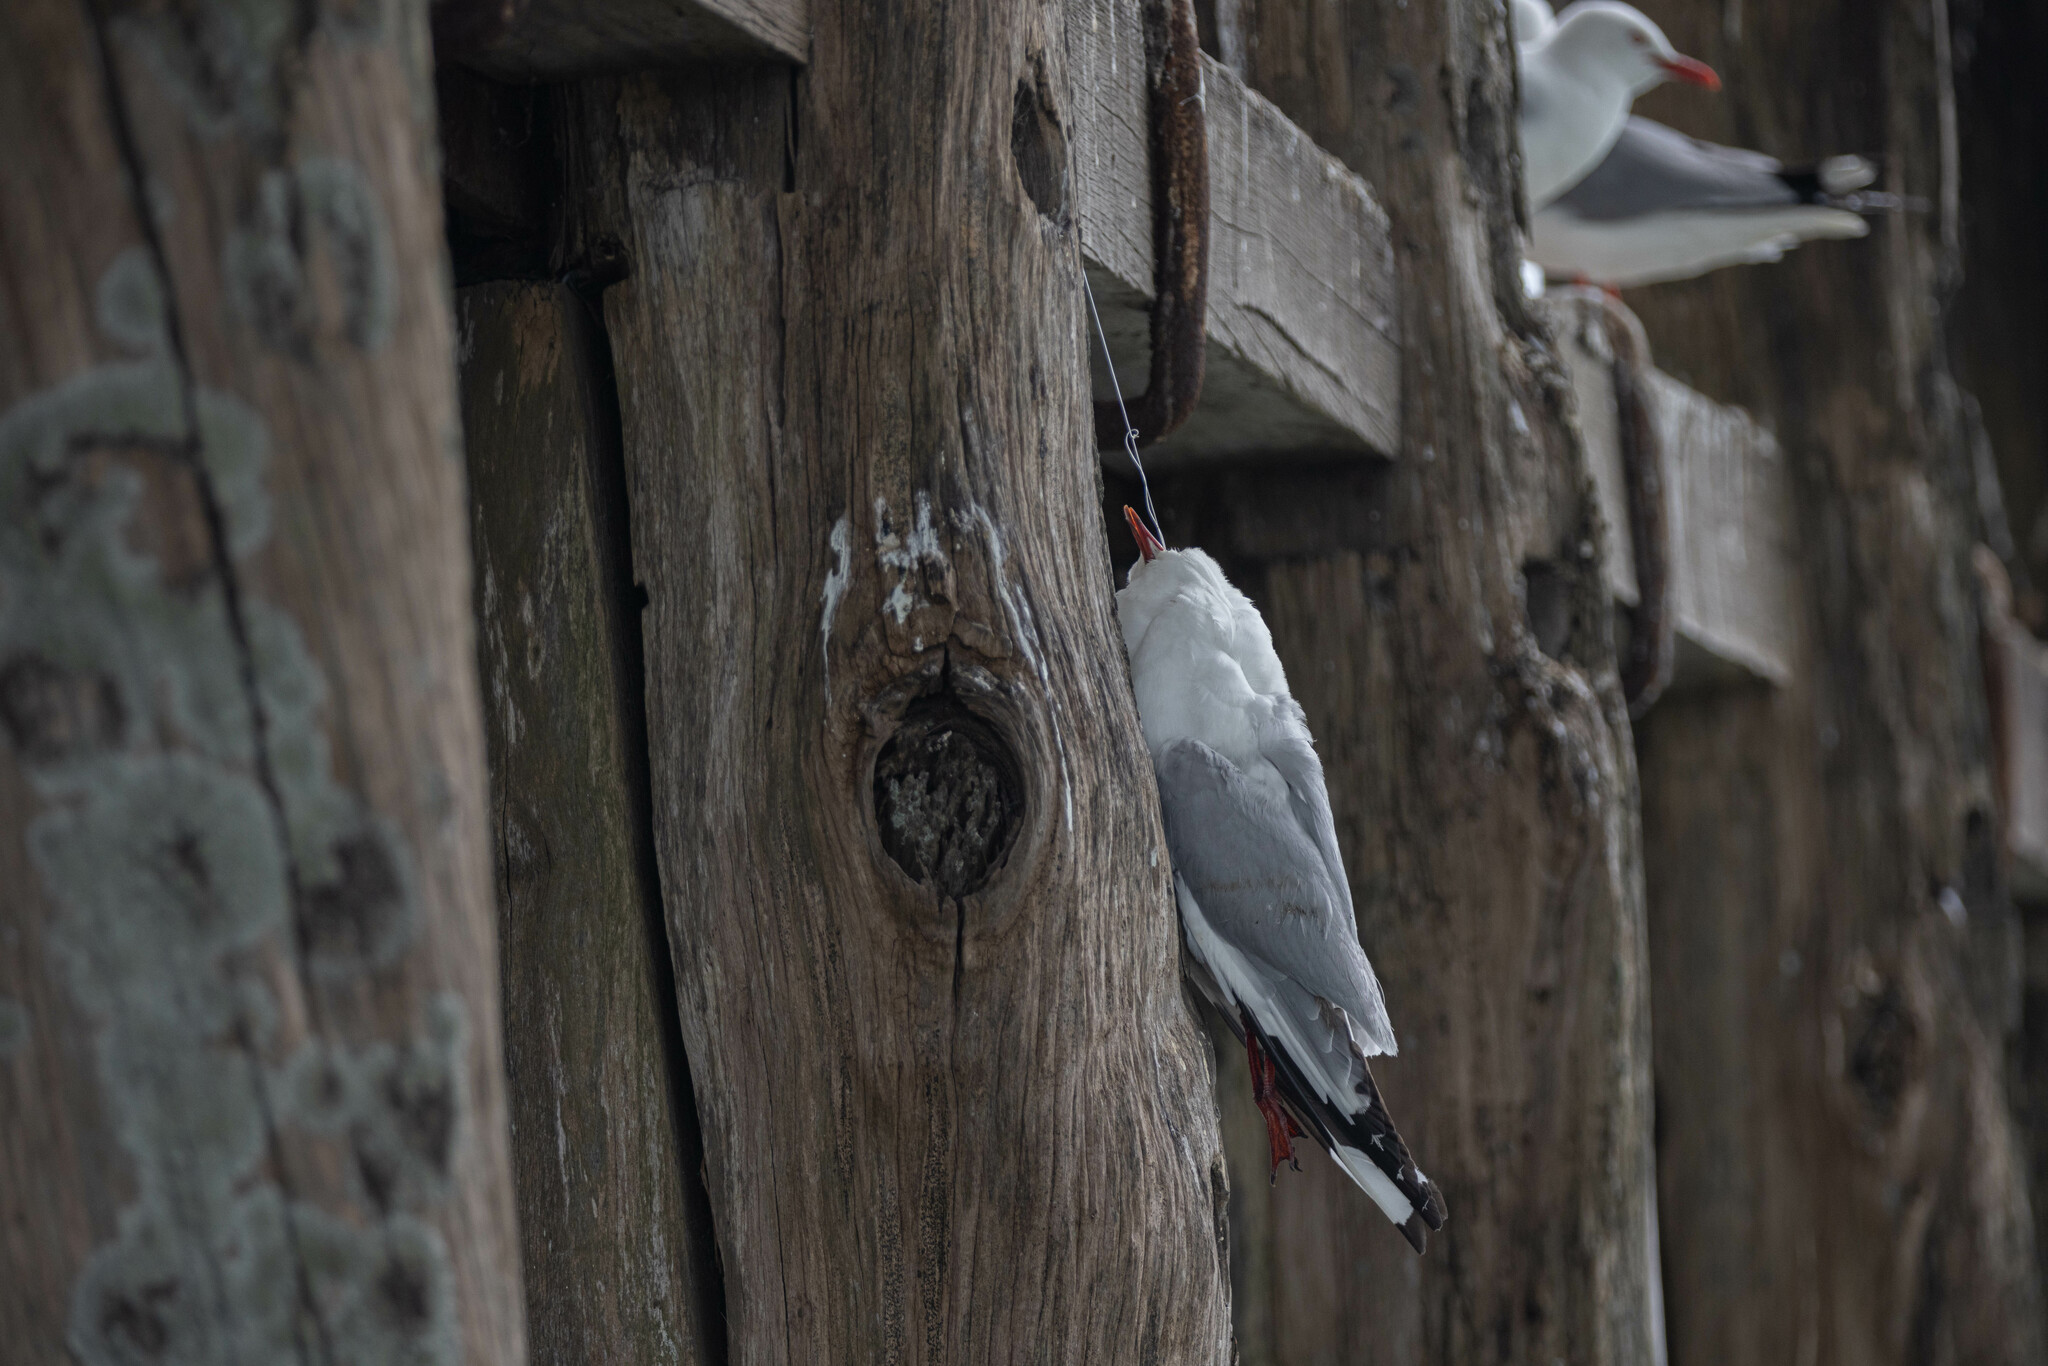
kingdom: Animalia
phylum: Chordata
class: Aves
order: Charadriiformes
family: Laridae
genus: Chroicocephalus
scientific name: Chroicocephalus novaehollandiae
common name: Silver gull
